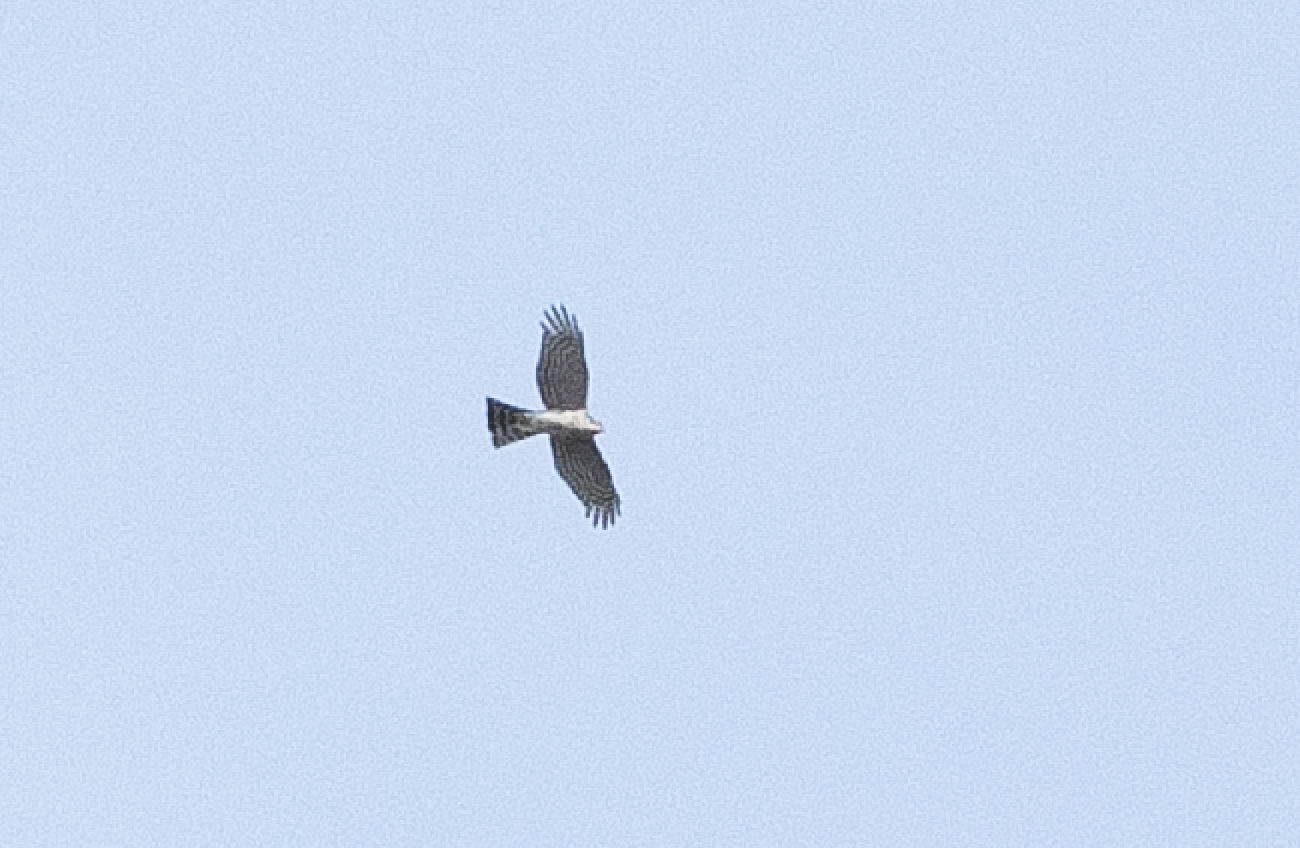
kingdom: Animalia
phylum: Chordata
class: Aves
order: Accipitriformes
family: Accipitridae
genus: Accipiter
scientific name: Accipiter nisus
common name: Eurasian sparrowhawk
